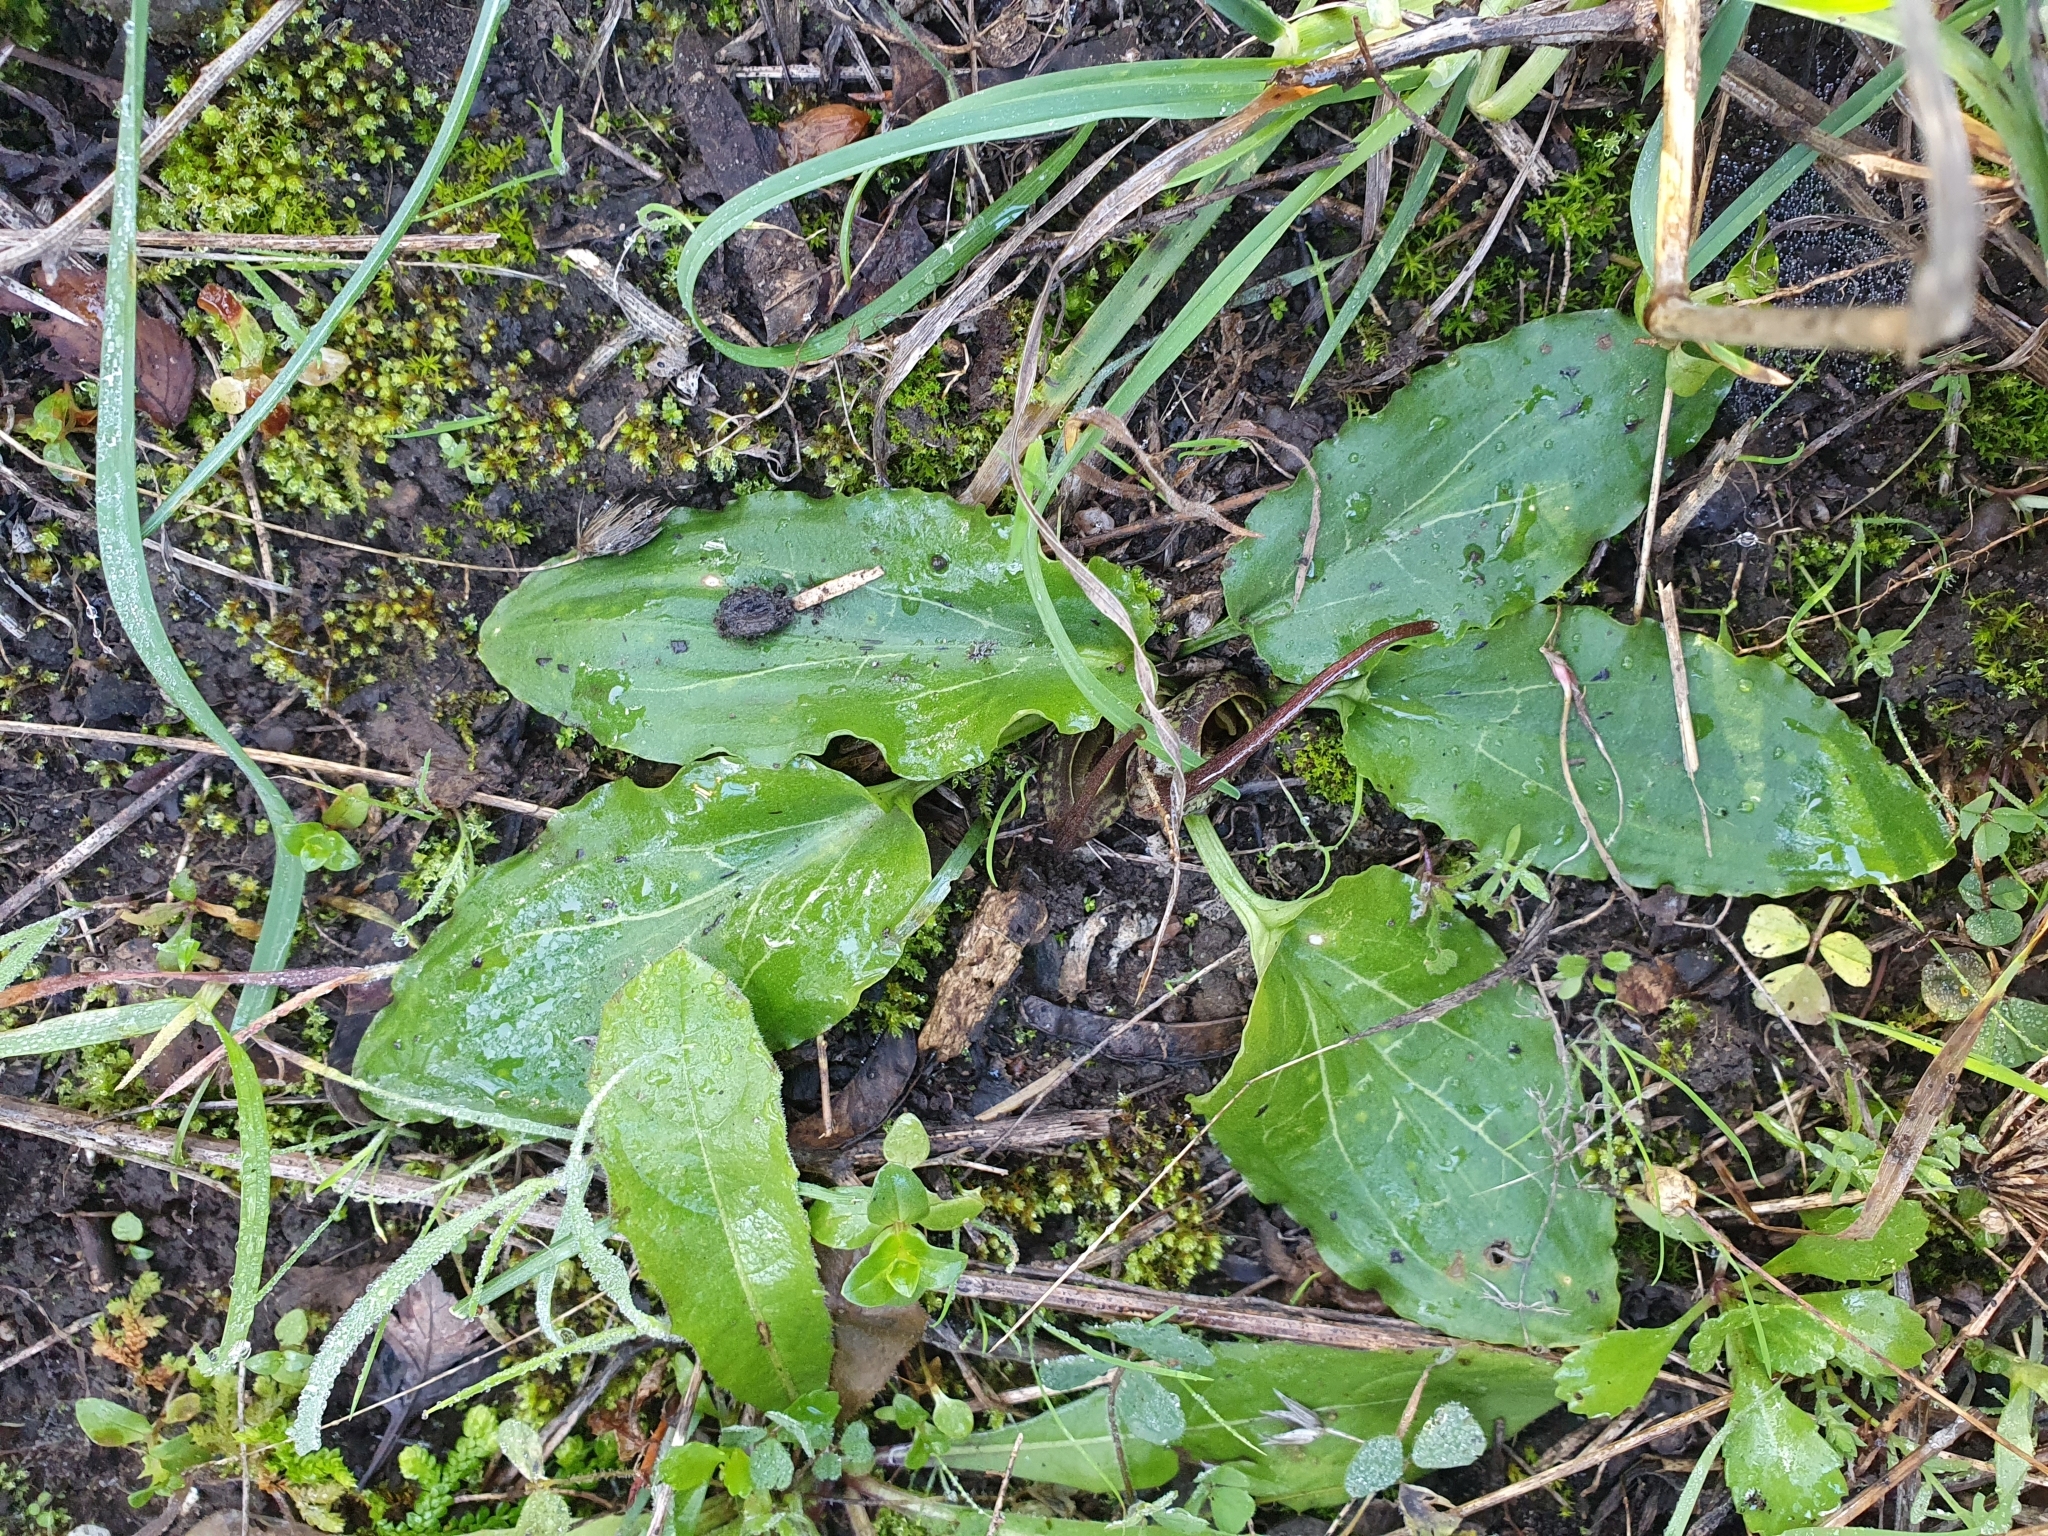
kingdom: Plantae
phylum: Tracheophyta
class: Liliopsida
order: Alismatales
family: Araceae
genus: Ambrosina
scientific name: Ambrosina bassii
